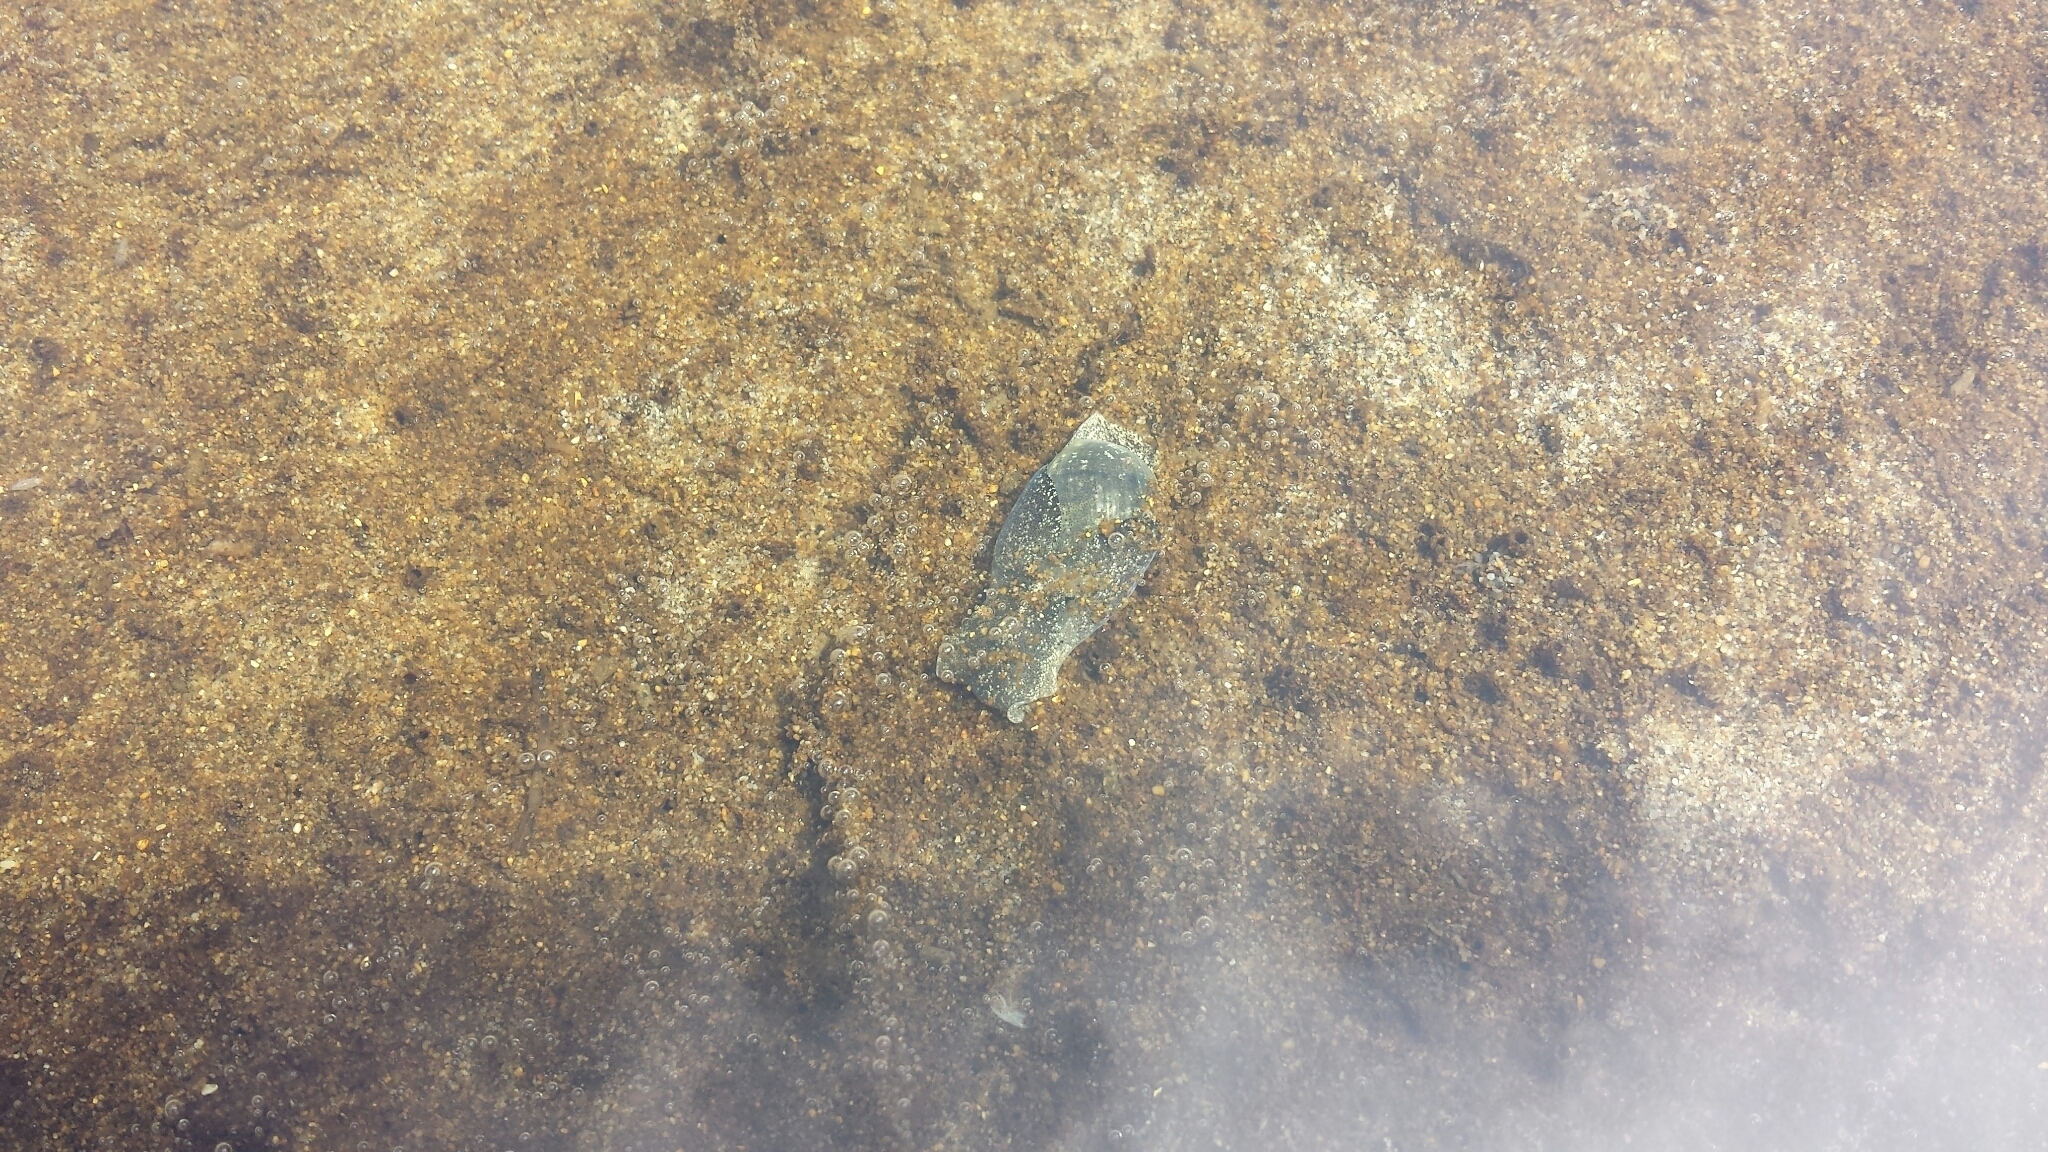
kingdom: Animalia
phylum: Mollusca
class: Gastropoda
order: Cephalaspidea
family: Haminoeidae
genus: Haminoea
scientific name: Haminoea virescens
